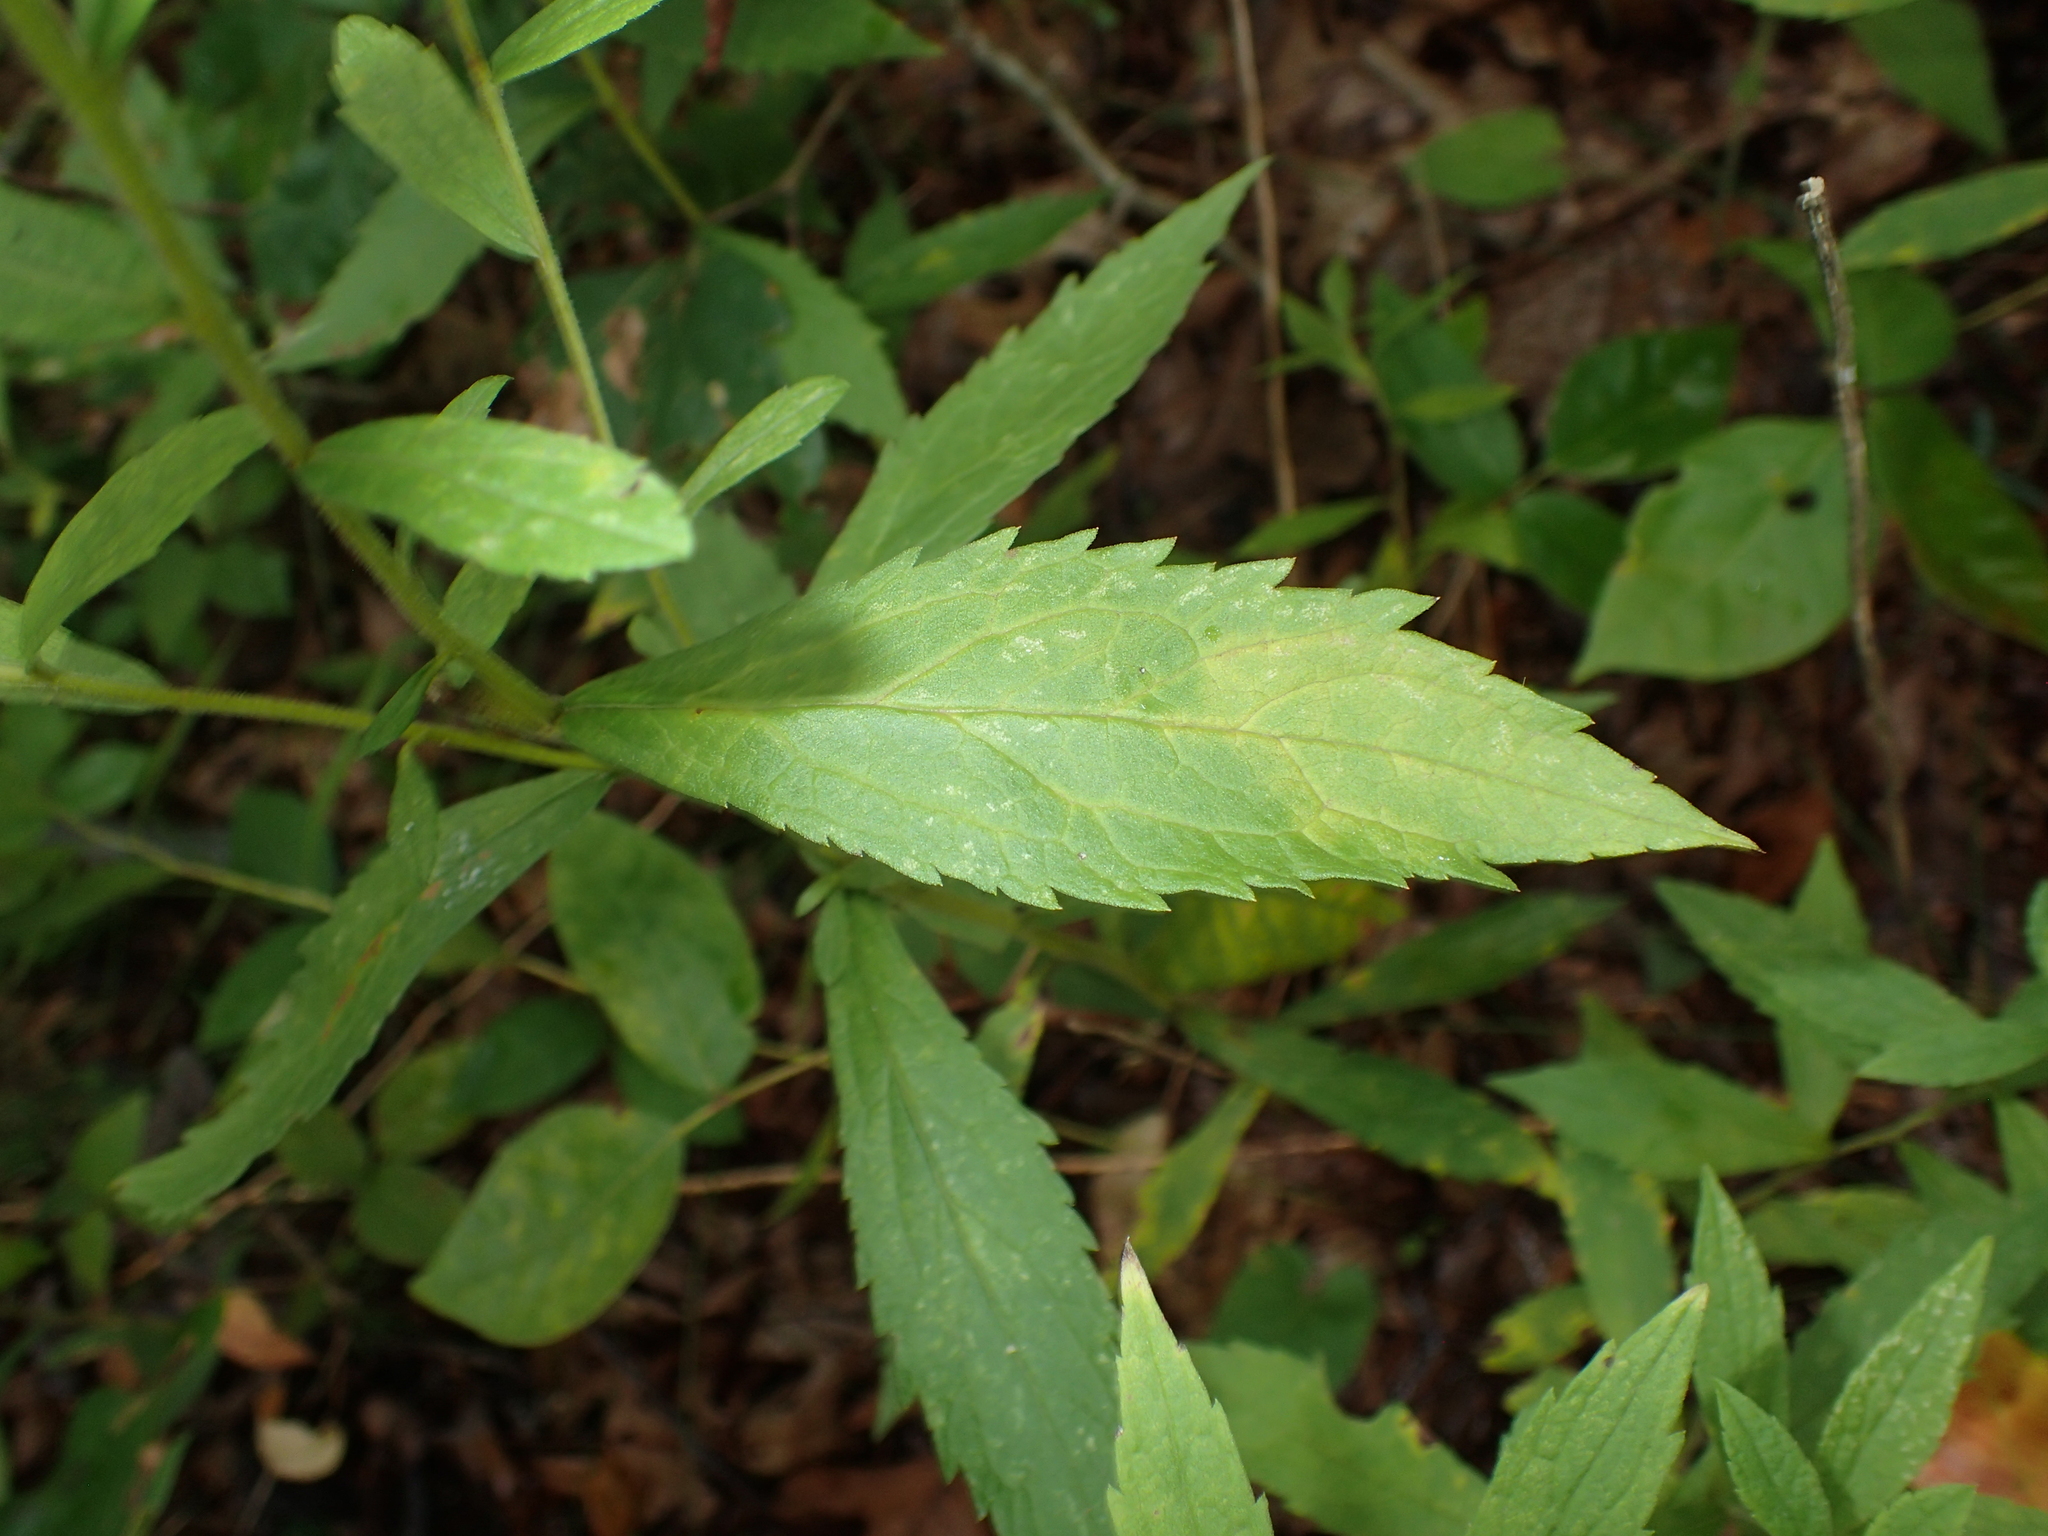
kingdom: Plantae
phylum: Tracheophyta
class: Magnoliopsida
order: Asterales
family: Asteraceae
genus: Solidago
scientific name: Solidago rugosa
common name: Rough-stemmed goldenrod
